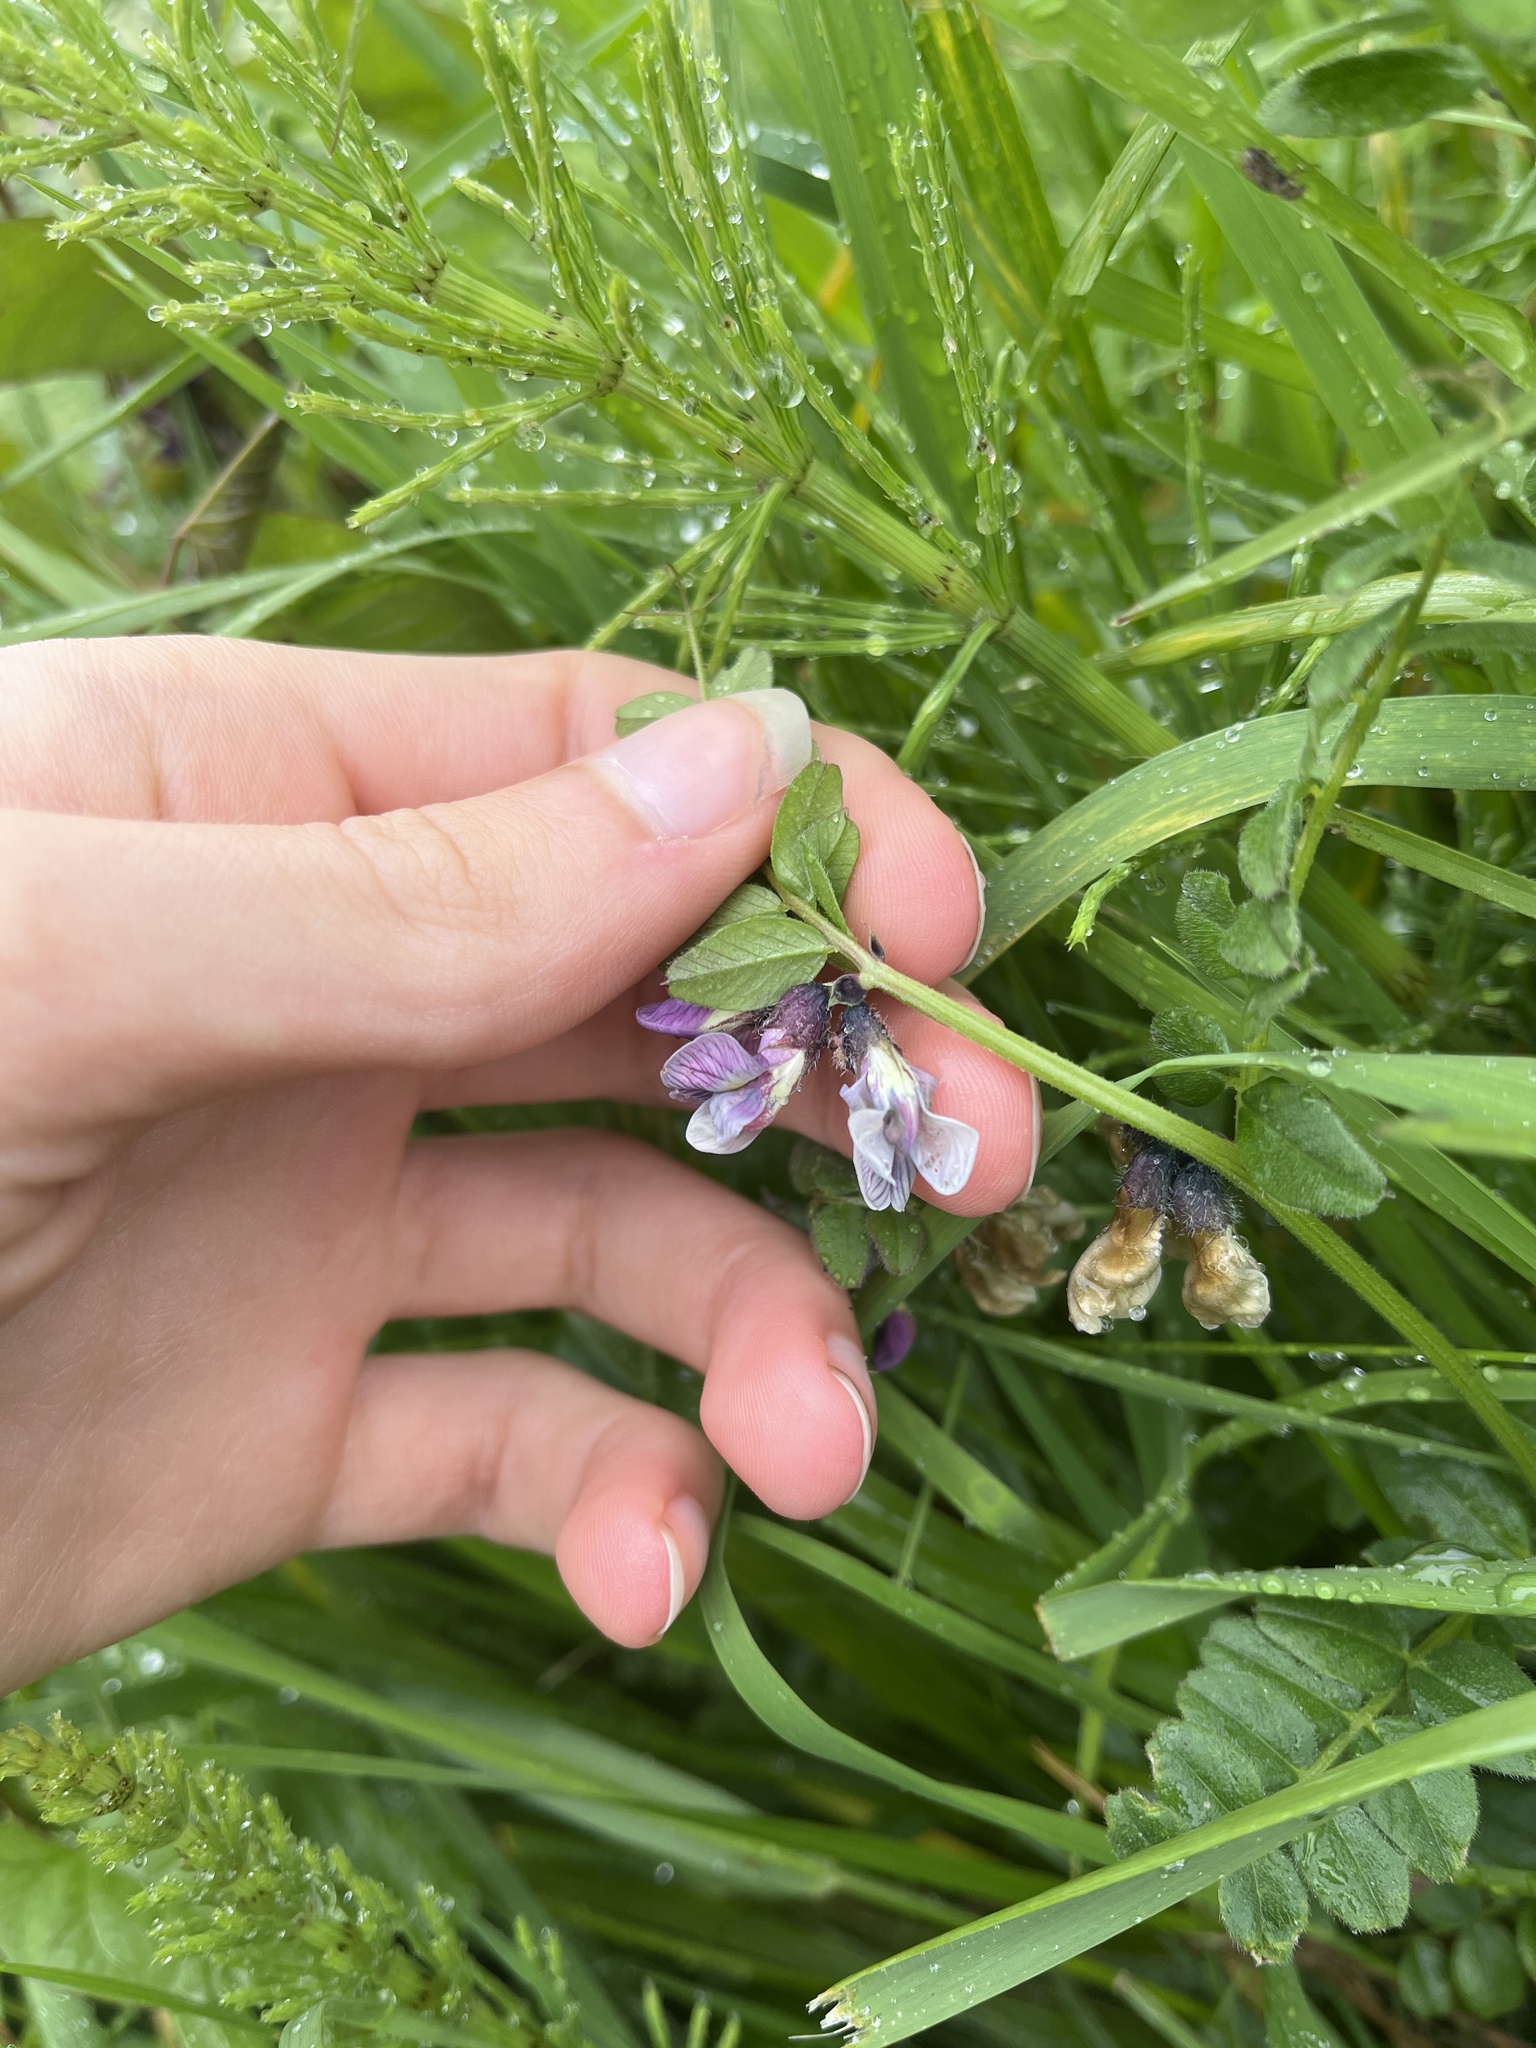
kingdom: Plantae
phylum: Tracheophyta
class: Magnoliopsida
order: Fabales
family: Fabaceae
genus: Vicia
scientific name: Vicia sepium
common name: Bush vetch
